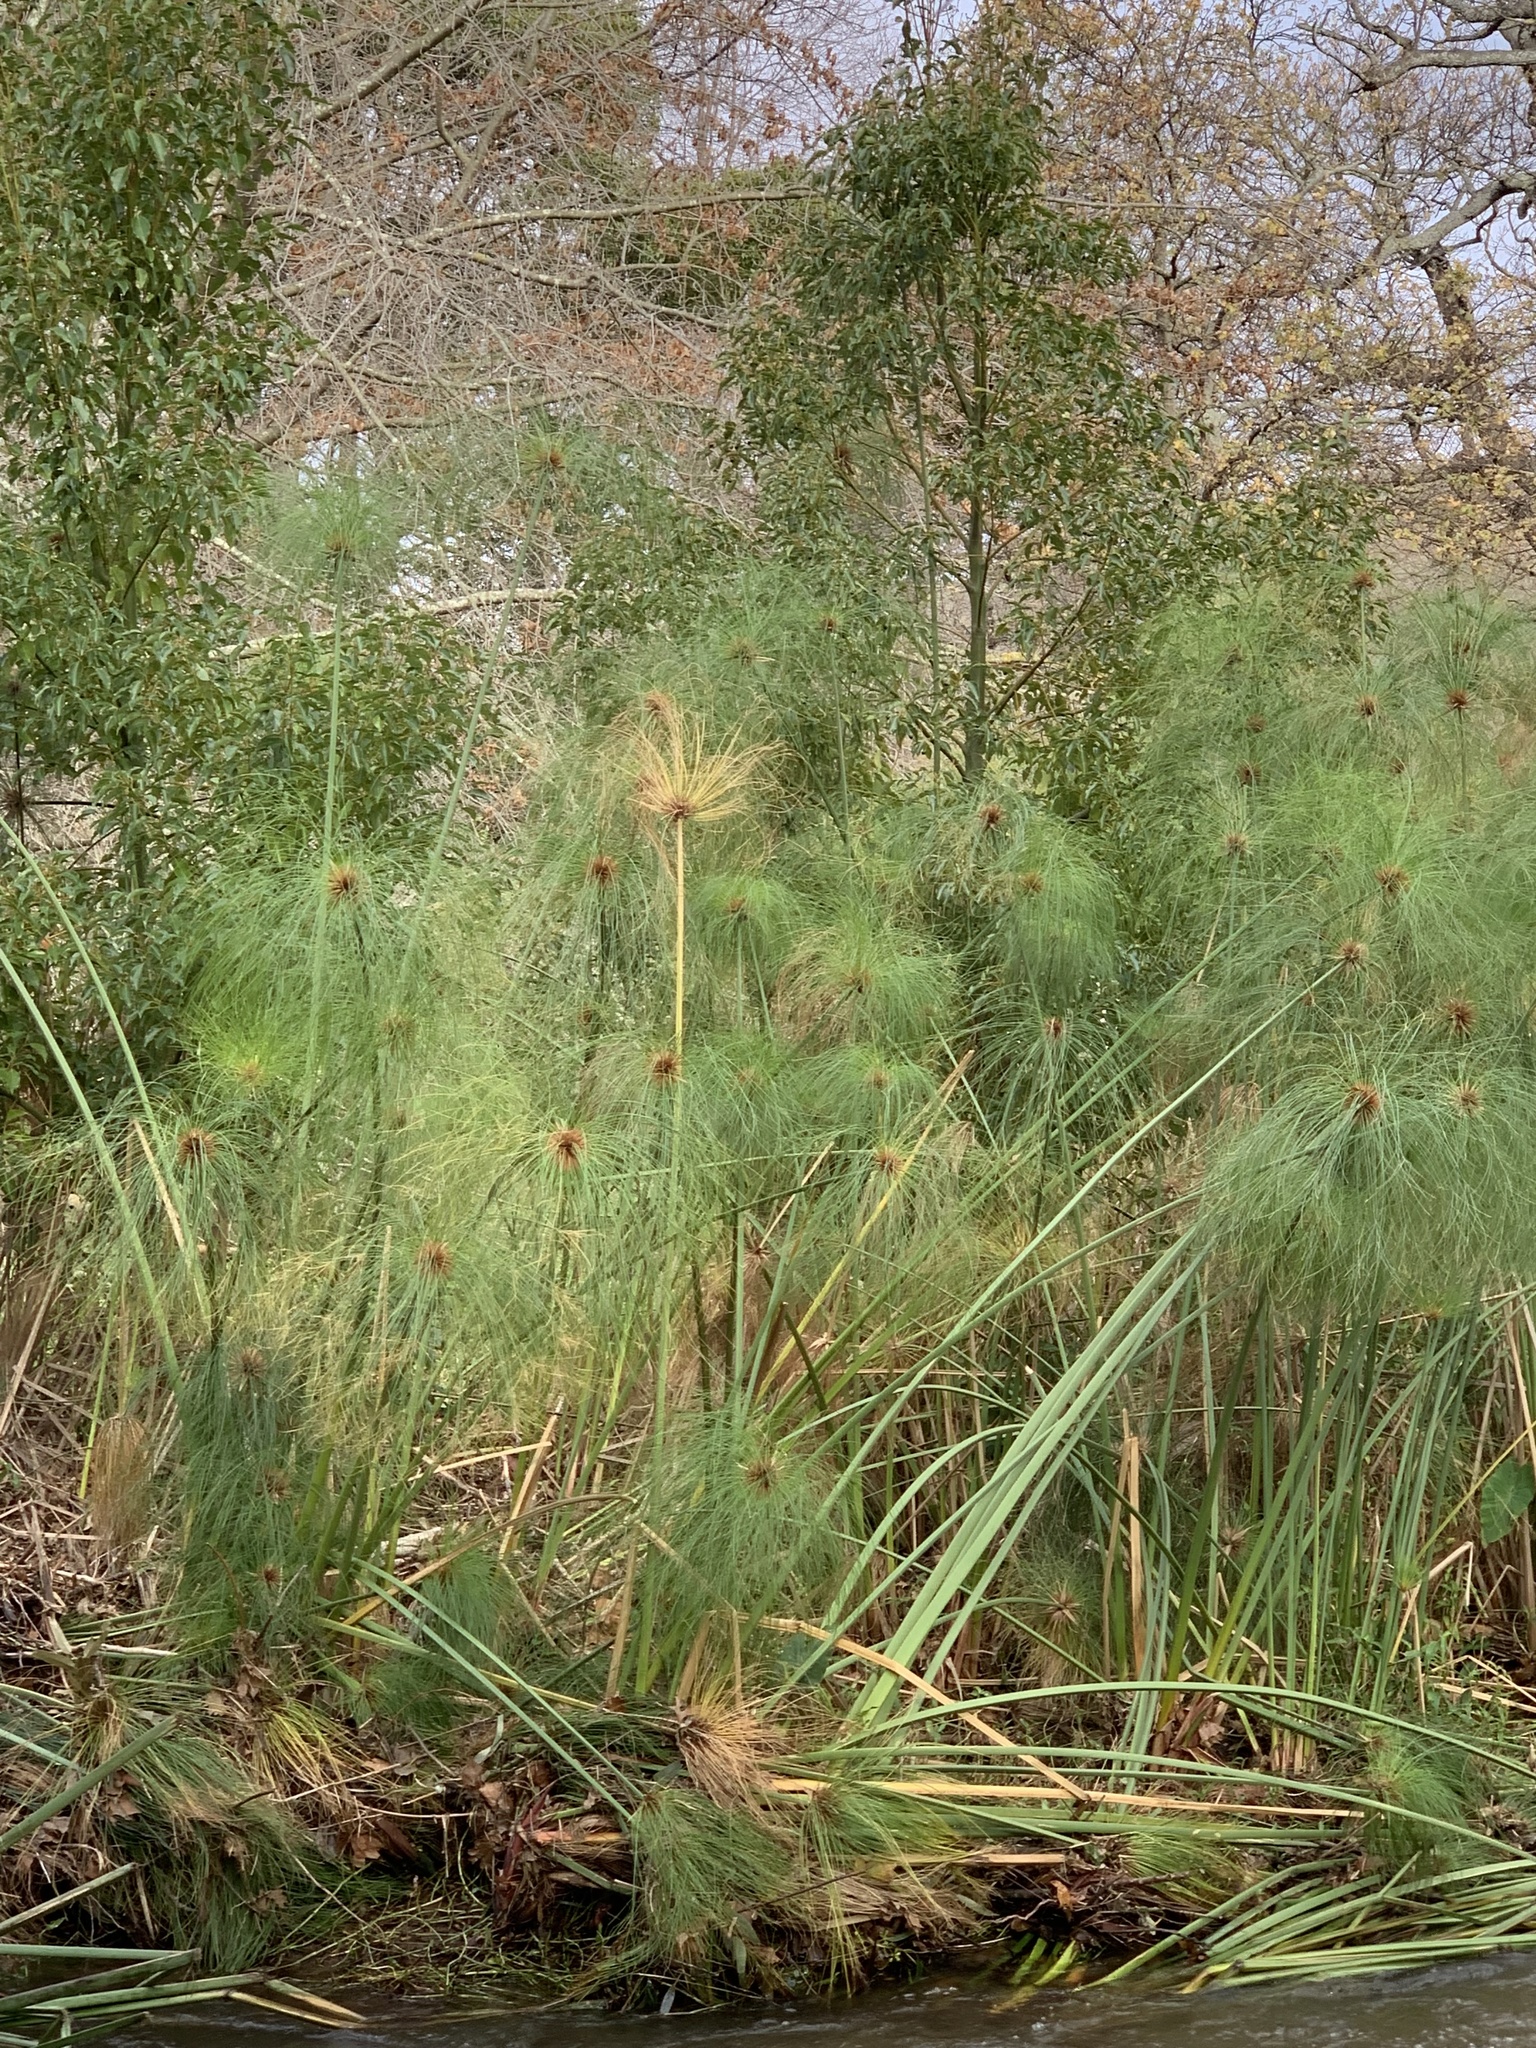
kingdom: Plantae
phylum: Tracheophyta
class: Liliopsida
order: Poales
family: Cyperaceae
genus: Cyperus
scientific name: Cyperus papyrus
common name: Papyrus
